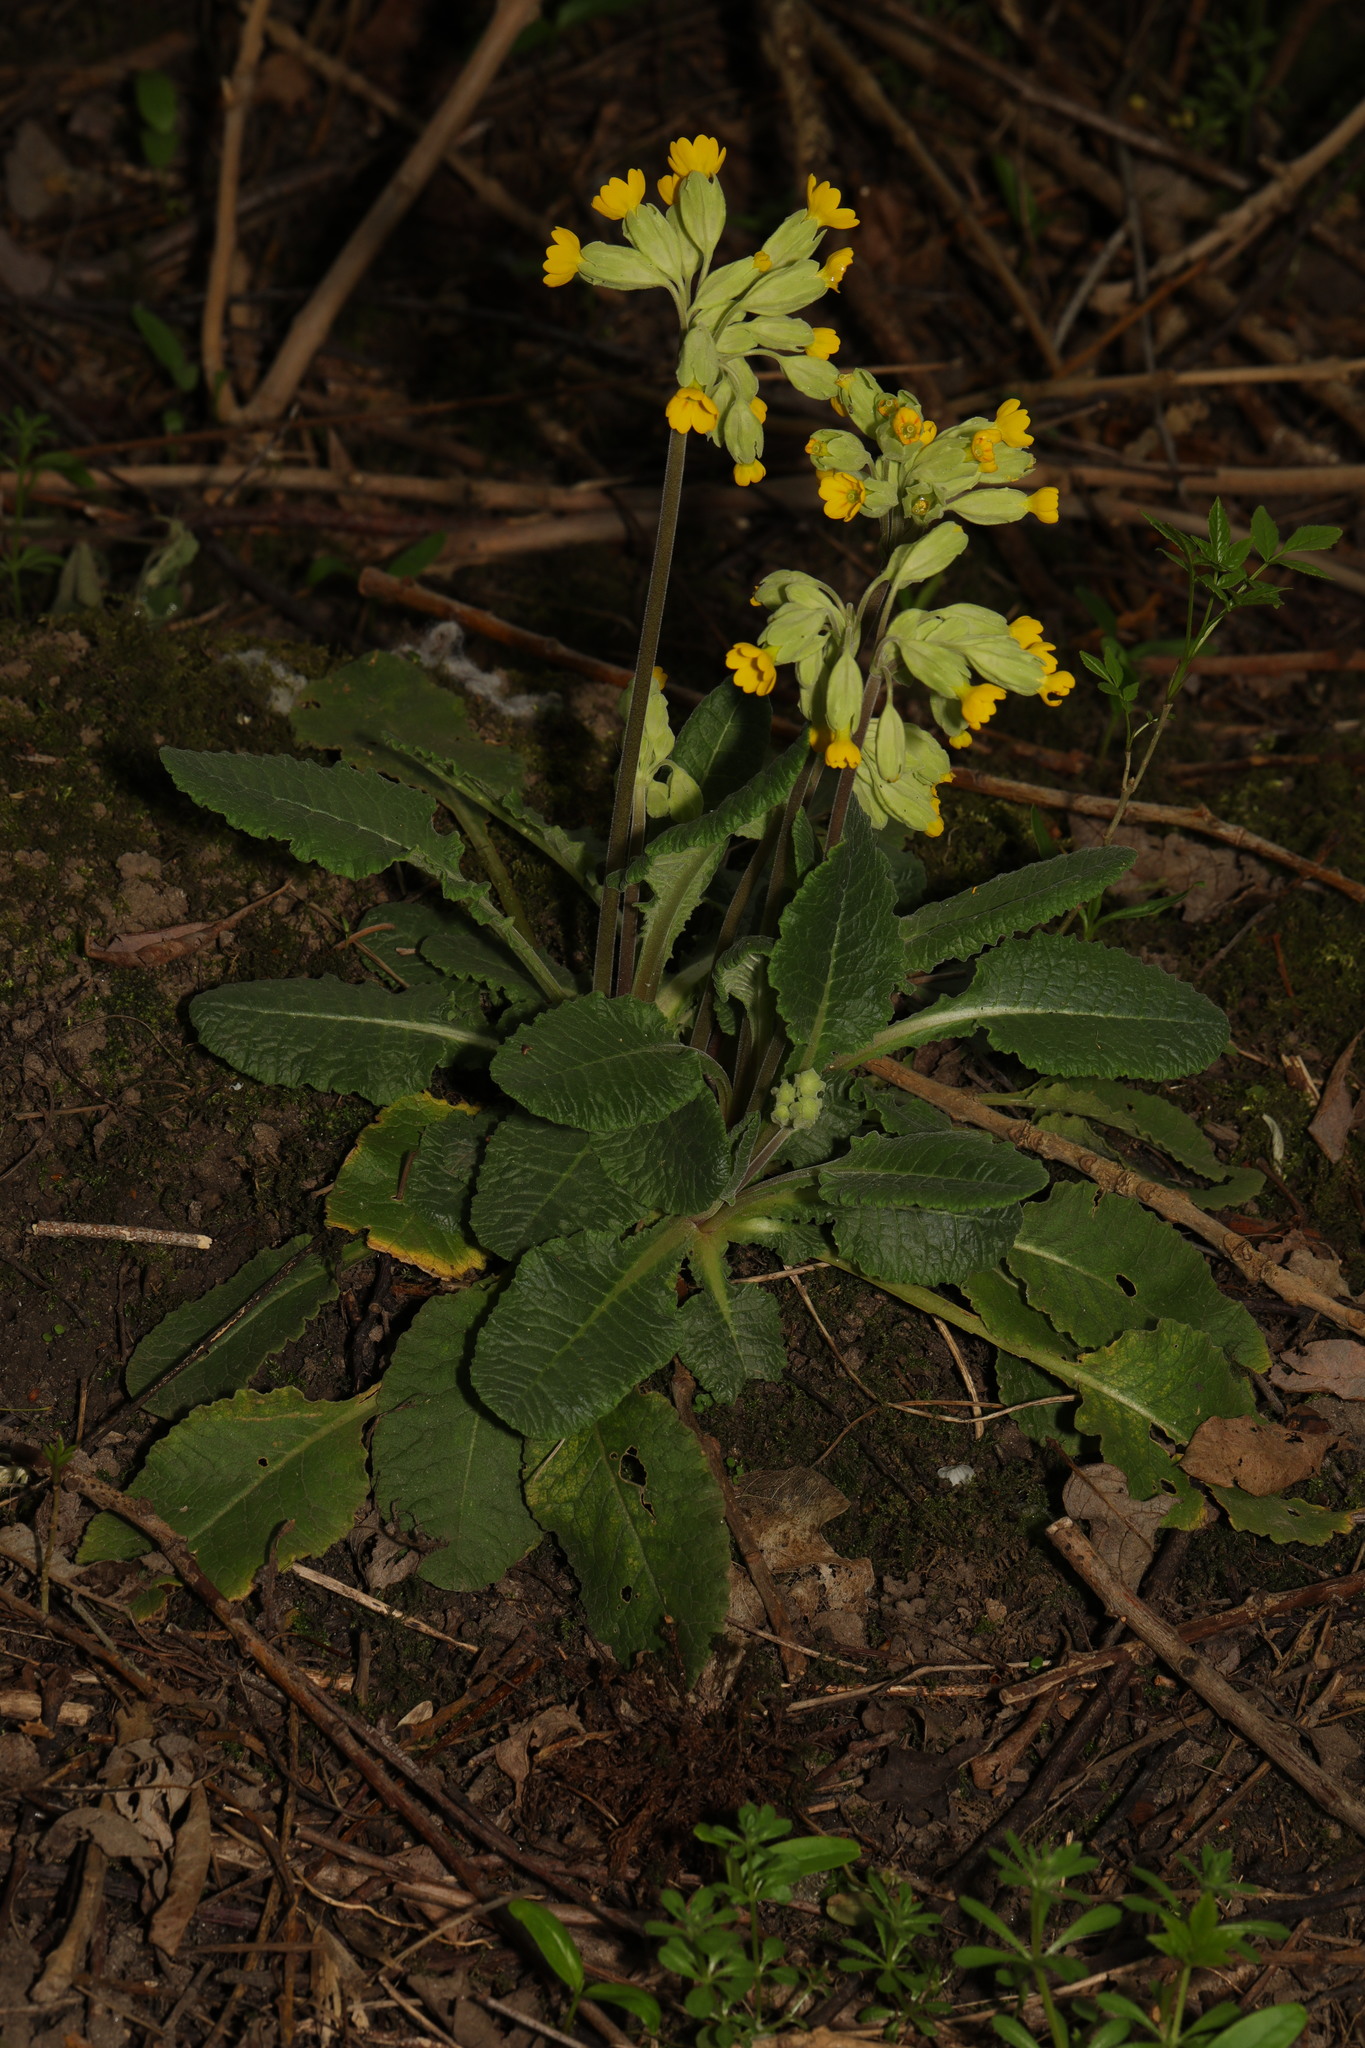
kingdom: Plantae
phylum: Tracheophyta
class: Magnoliopsida
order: Ericales
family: Primulaceae
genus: Primula
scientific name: Primula veris
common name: Cowslip
